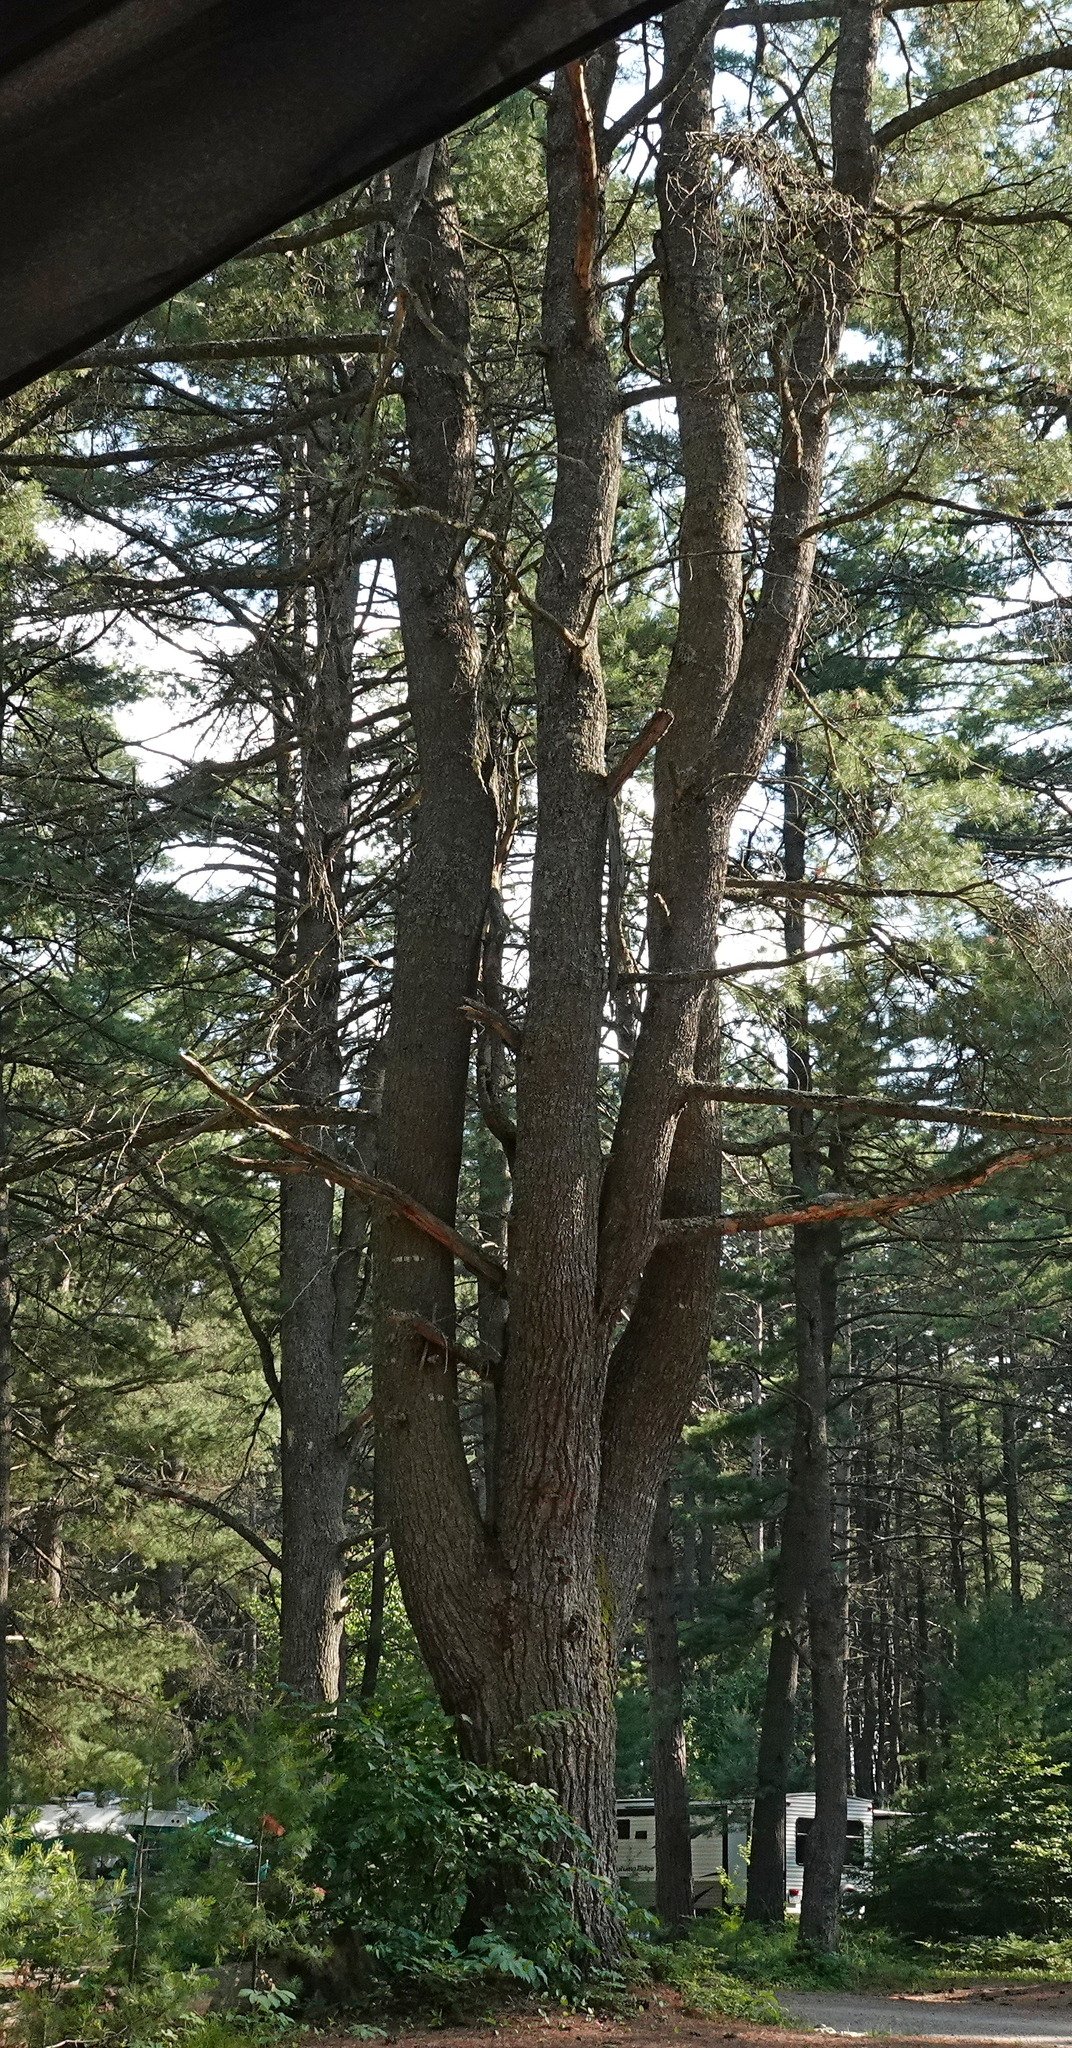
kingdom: Plantae
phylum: Tracheophyta
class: Pinopsida
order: Pinales
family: Pinaceae
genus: Pinus
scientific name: Pinus strobus
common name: Weymouth pine
